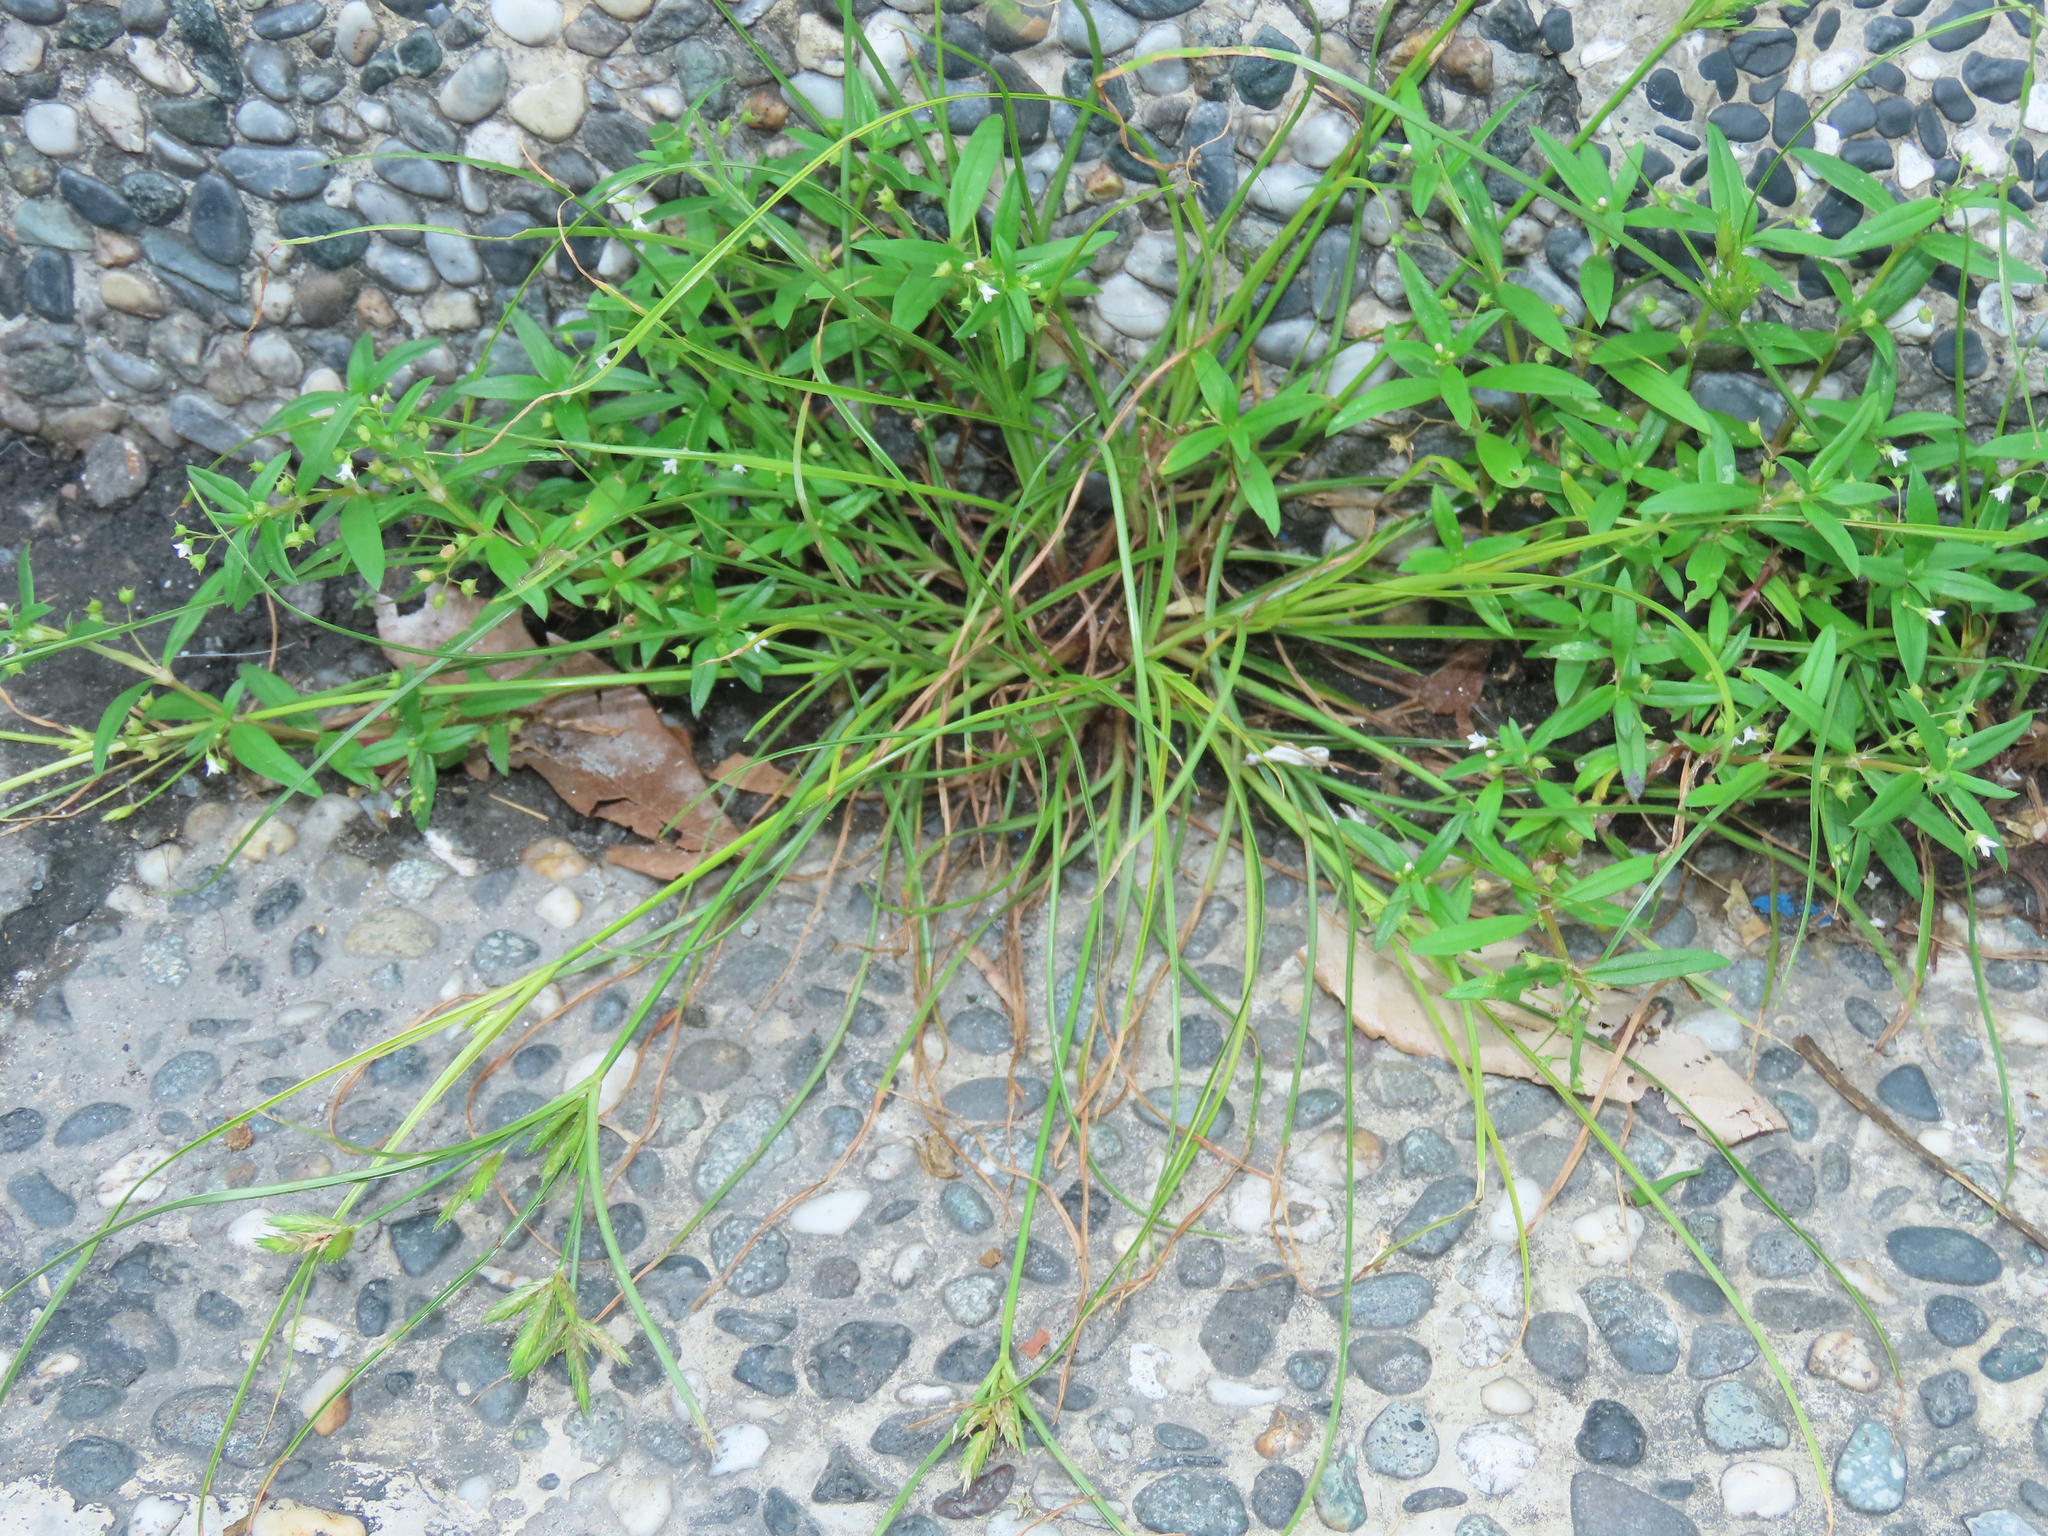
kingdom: Plantae
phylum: Tracheophyta
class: Liliopsida
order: Poales
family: Cyperaceae
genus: Cyperus
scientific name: Cyperus compressus
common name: Poorland flatsedge
